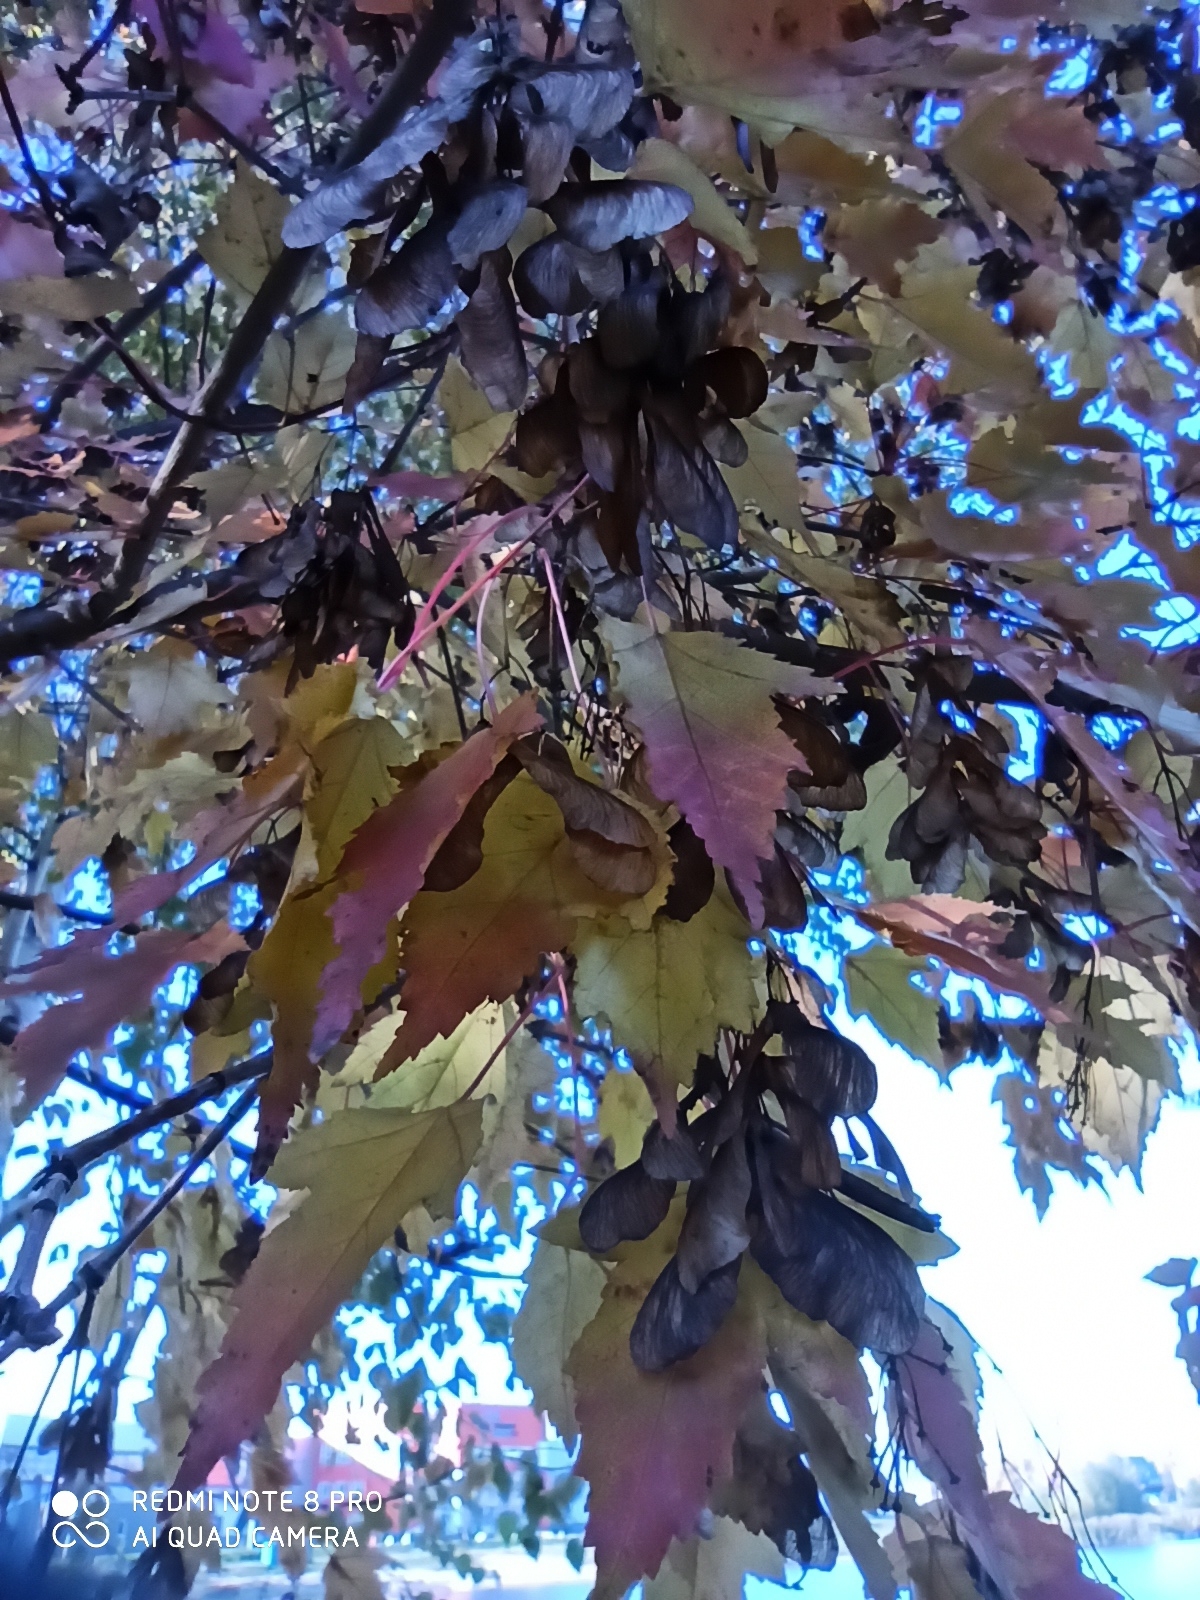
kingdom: Plantae
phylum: Tracheophyta
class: Magnoliopsida
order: Sapindales
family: Sapindaceae
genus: Acer
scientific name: Acer tataricum
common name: Tartar maple
